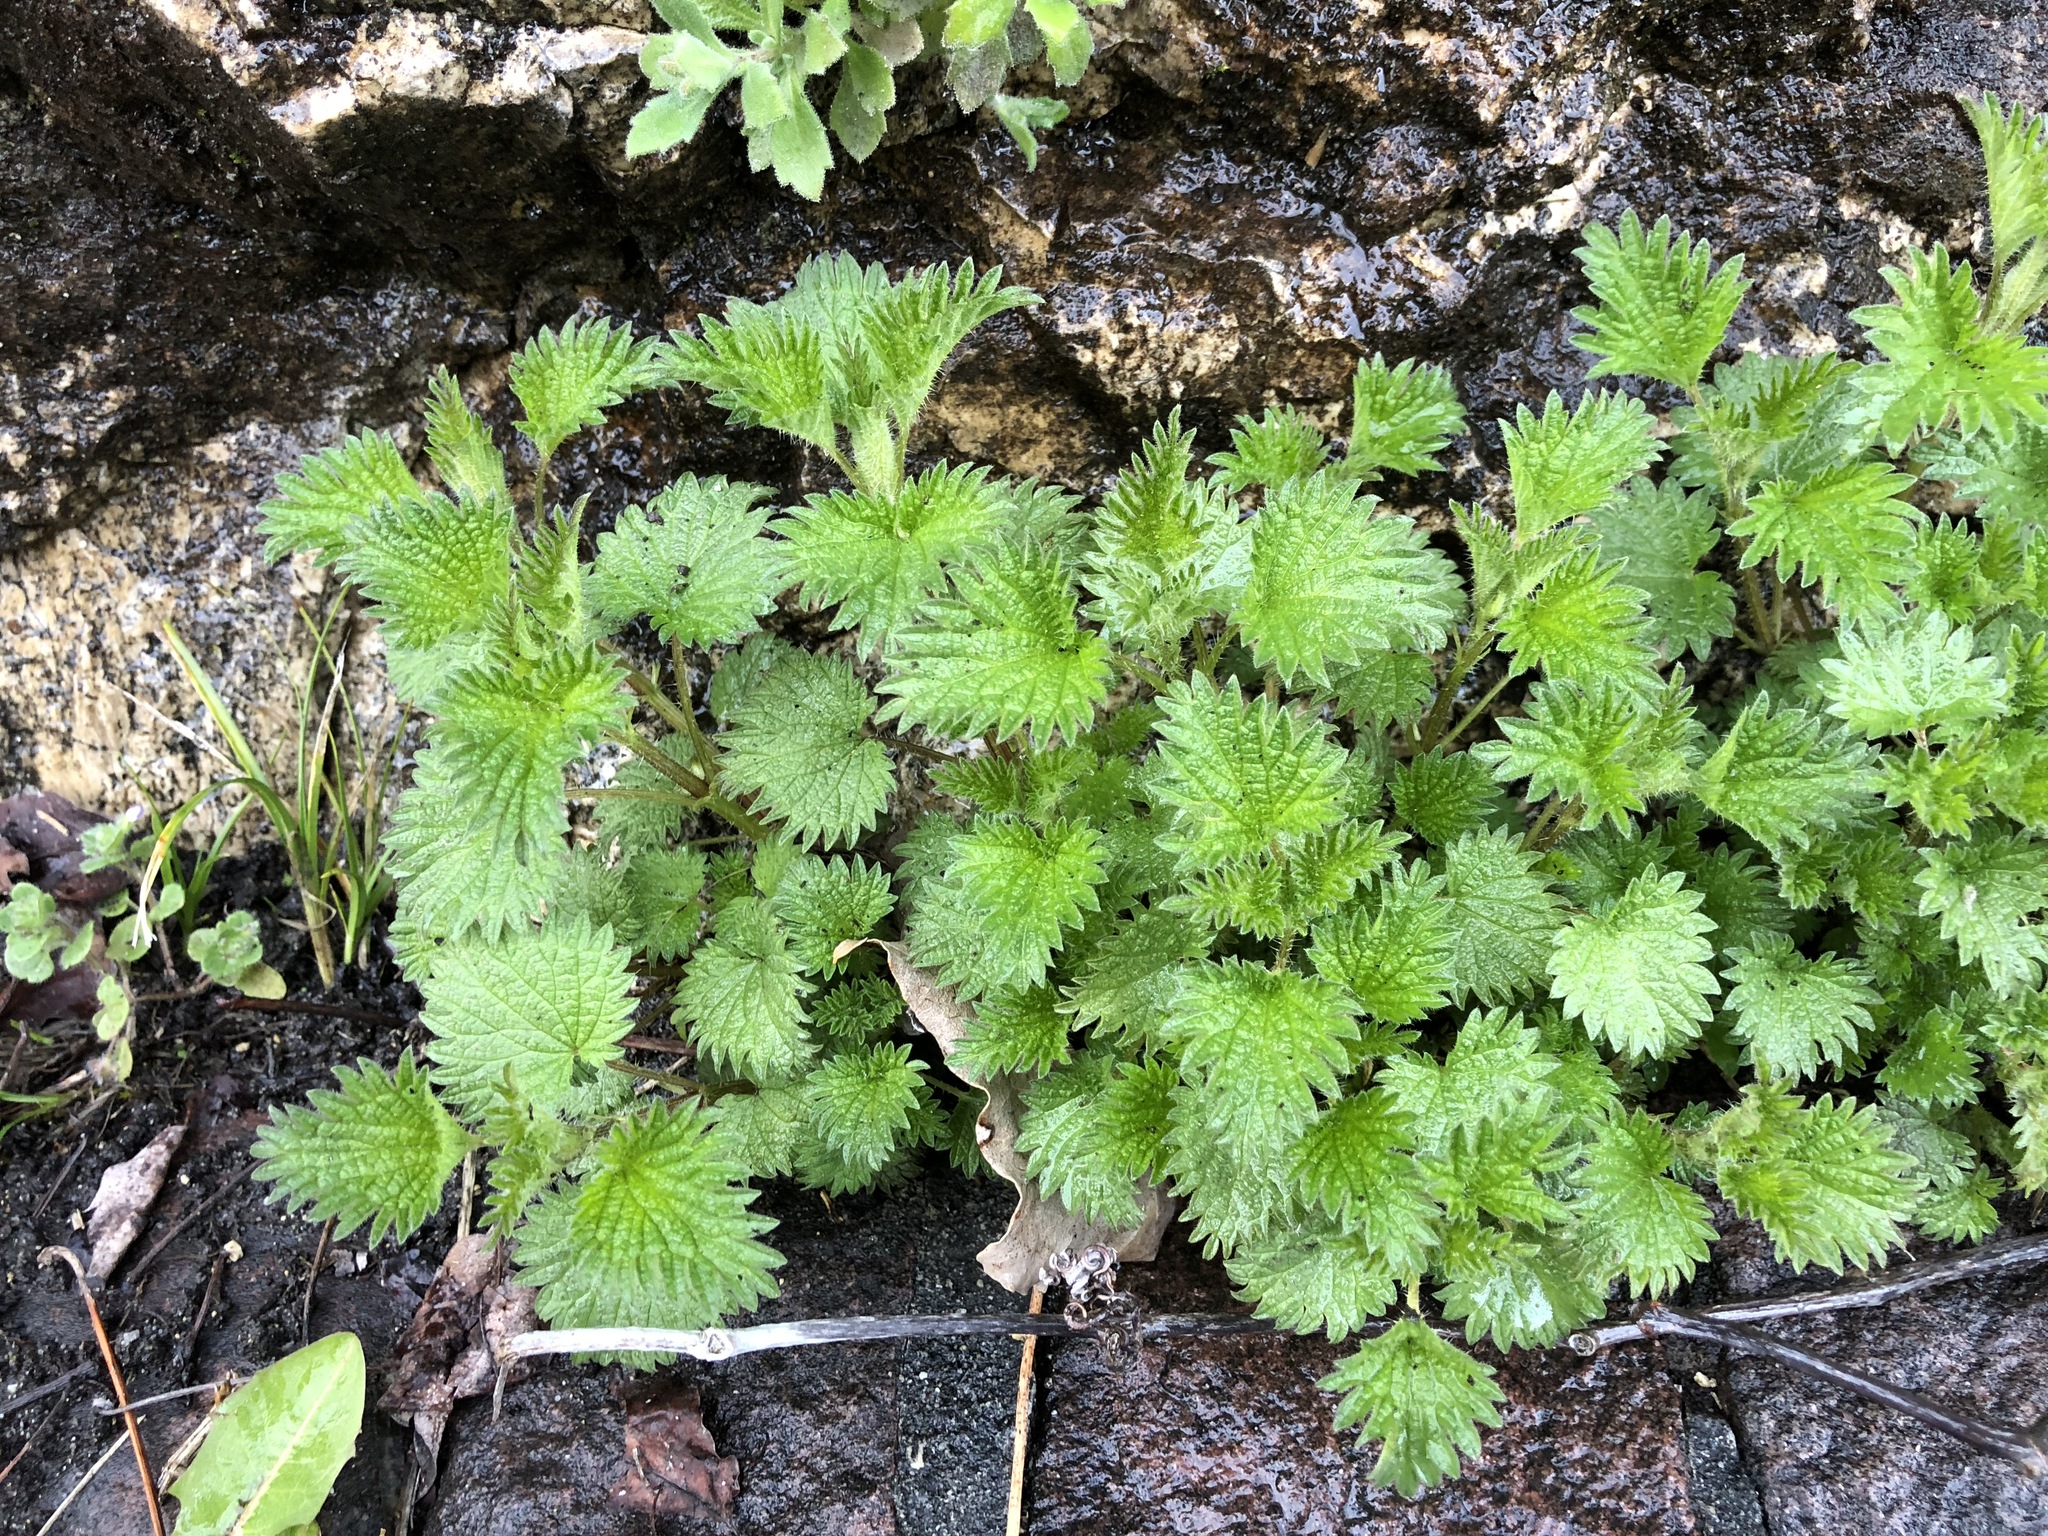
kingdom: Plantae
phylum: Tracheophyta
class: Magnoliopsida
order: Rosales
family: Urticaceae
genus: Urtica
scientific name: Urtica dioica
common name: Common nettle
